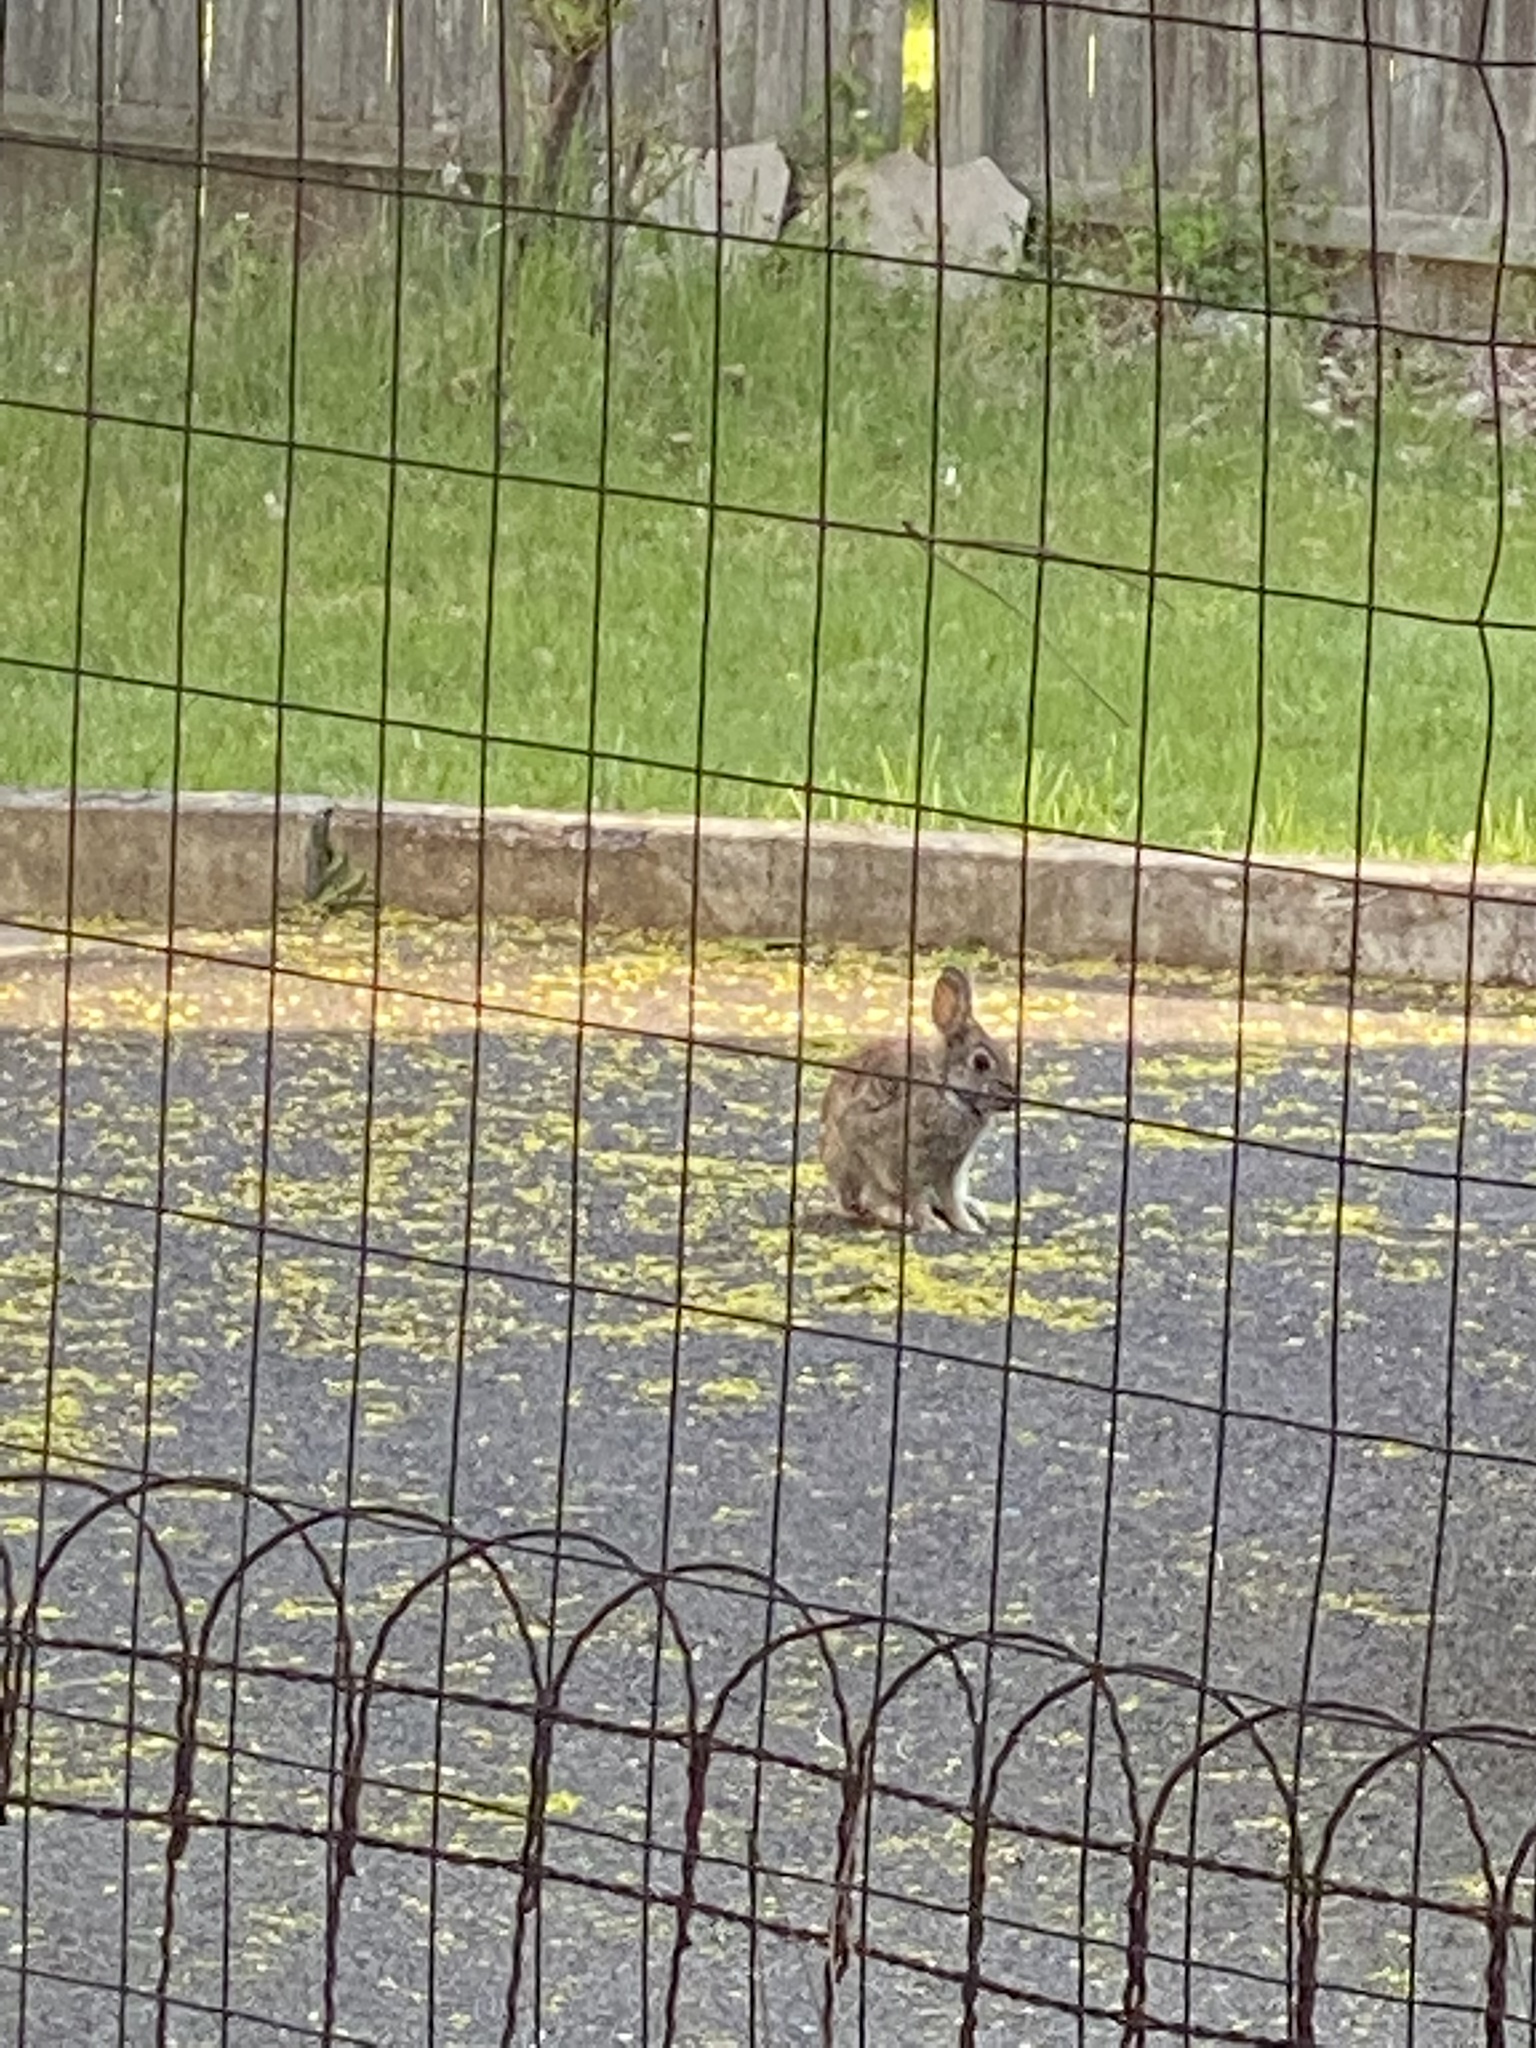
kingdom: Animalia
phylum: Chordata
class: Mammalia
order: Lagomorpha
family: Leporidae
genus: Sylvilagus
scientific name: Sylvilagus floridanus
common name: Eastern cottontail
